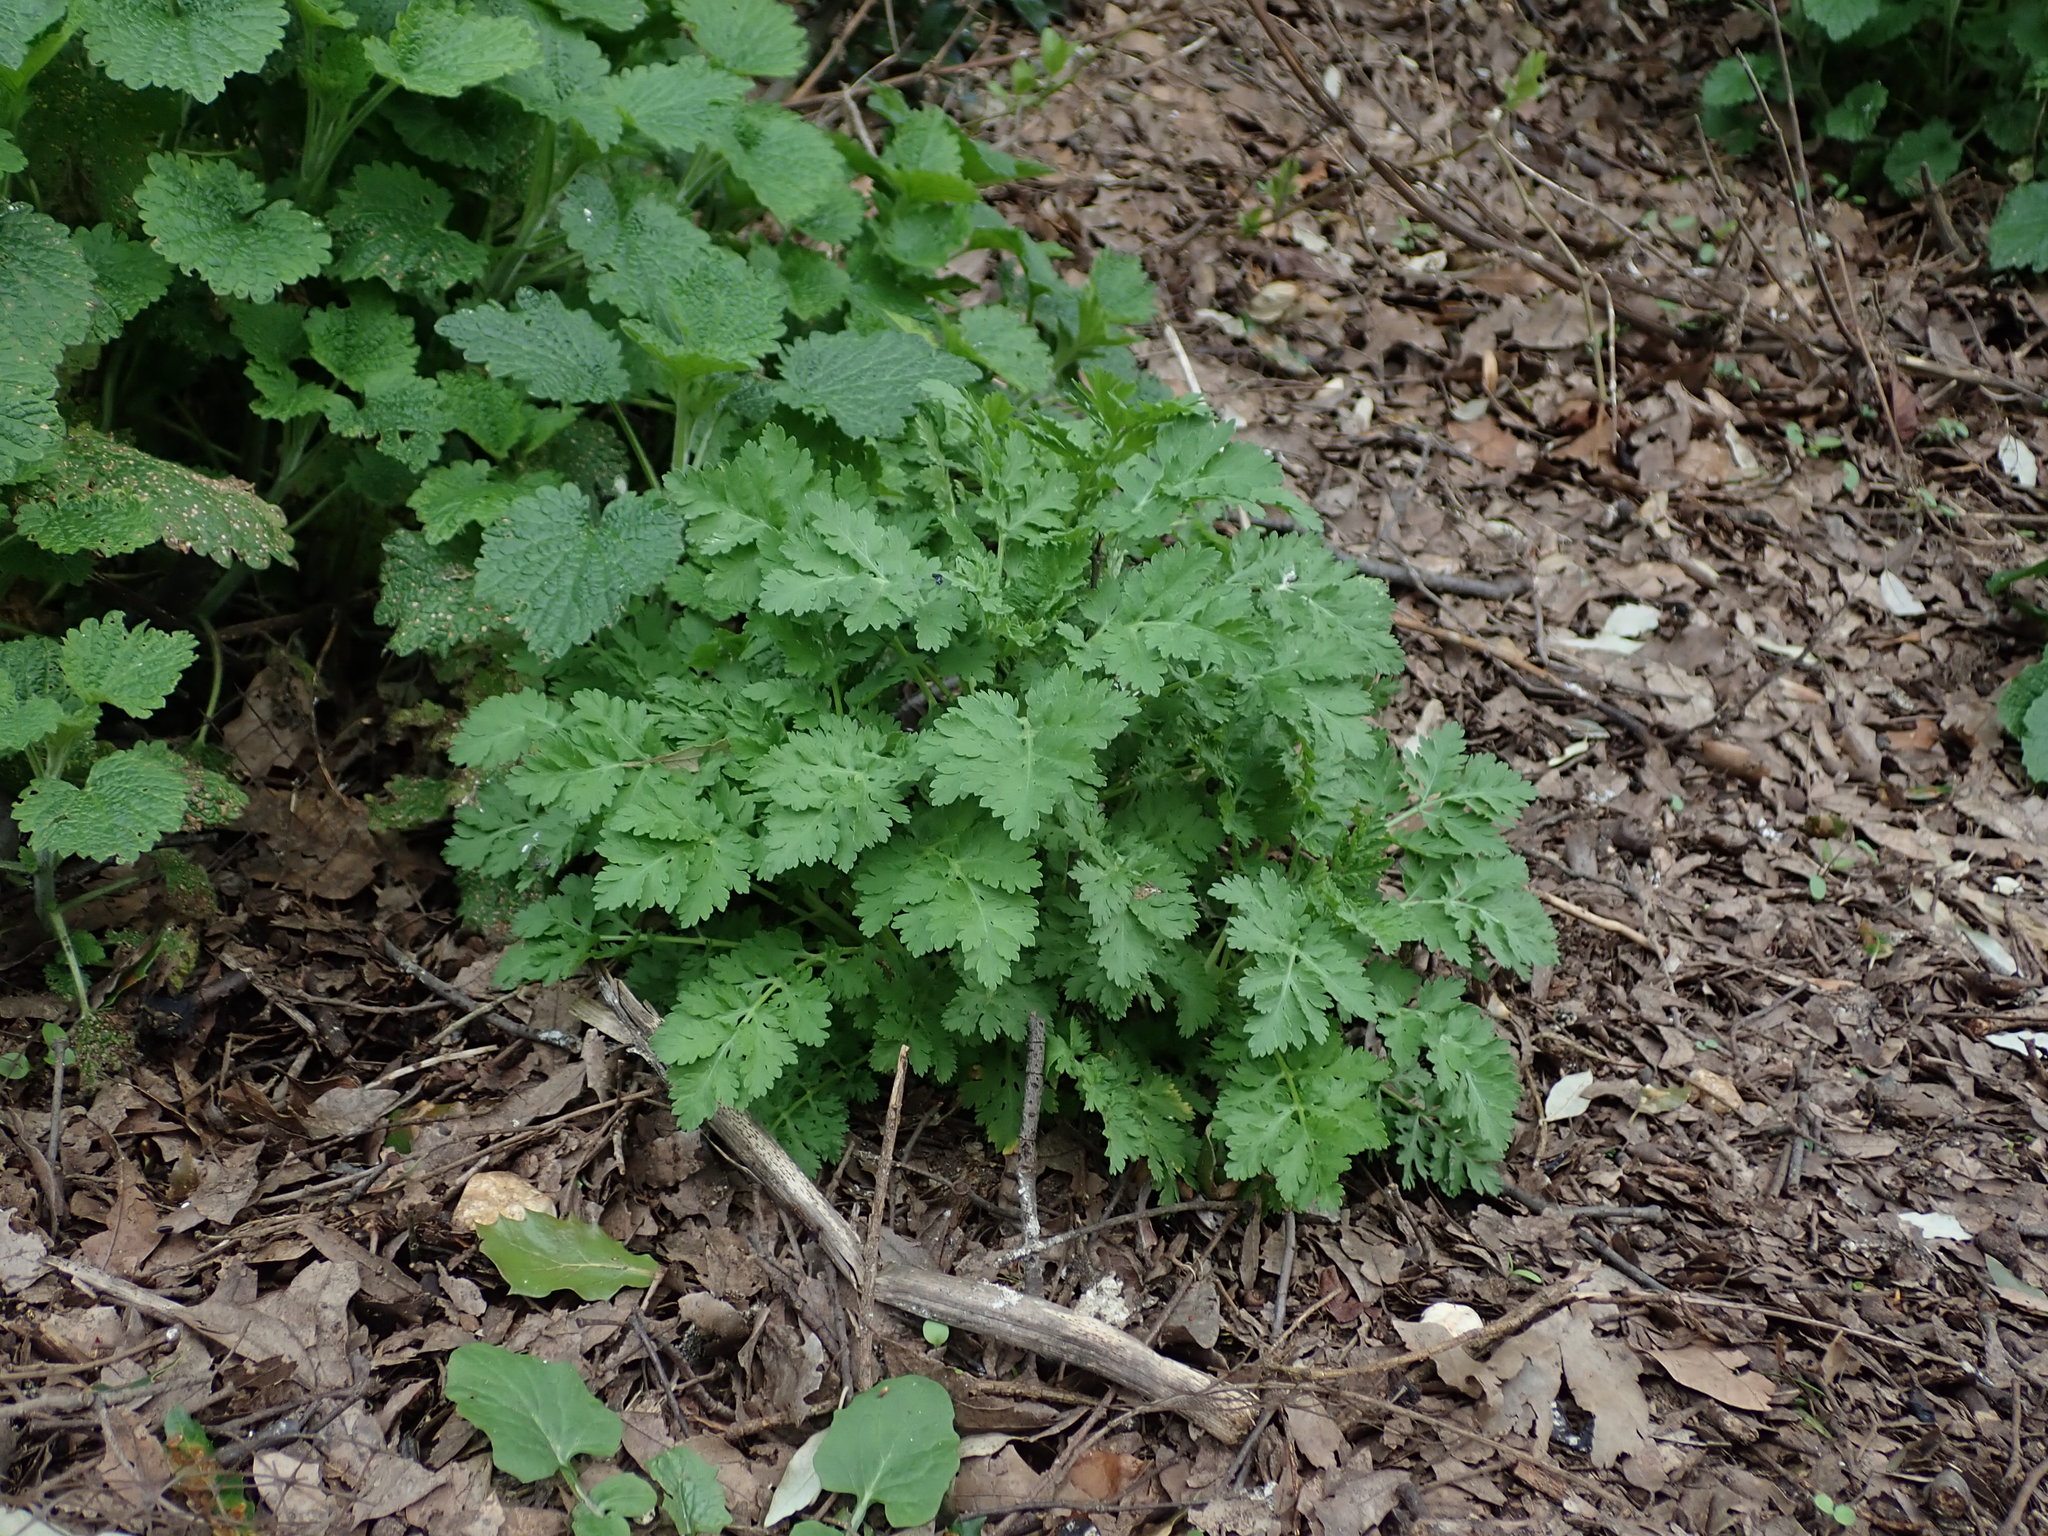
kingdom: Plantae
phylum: Tracheophyta
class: Magnoliopsida
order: Asterales
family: Asteraceae
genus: Tanacetum
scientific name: Tanacetum parthenium
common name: Feverfew
